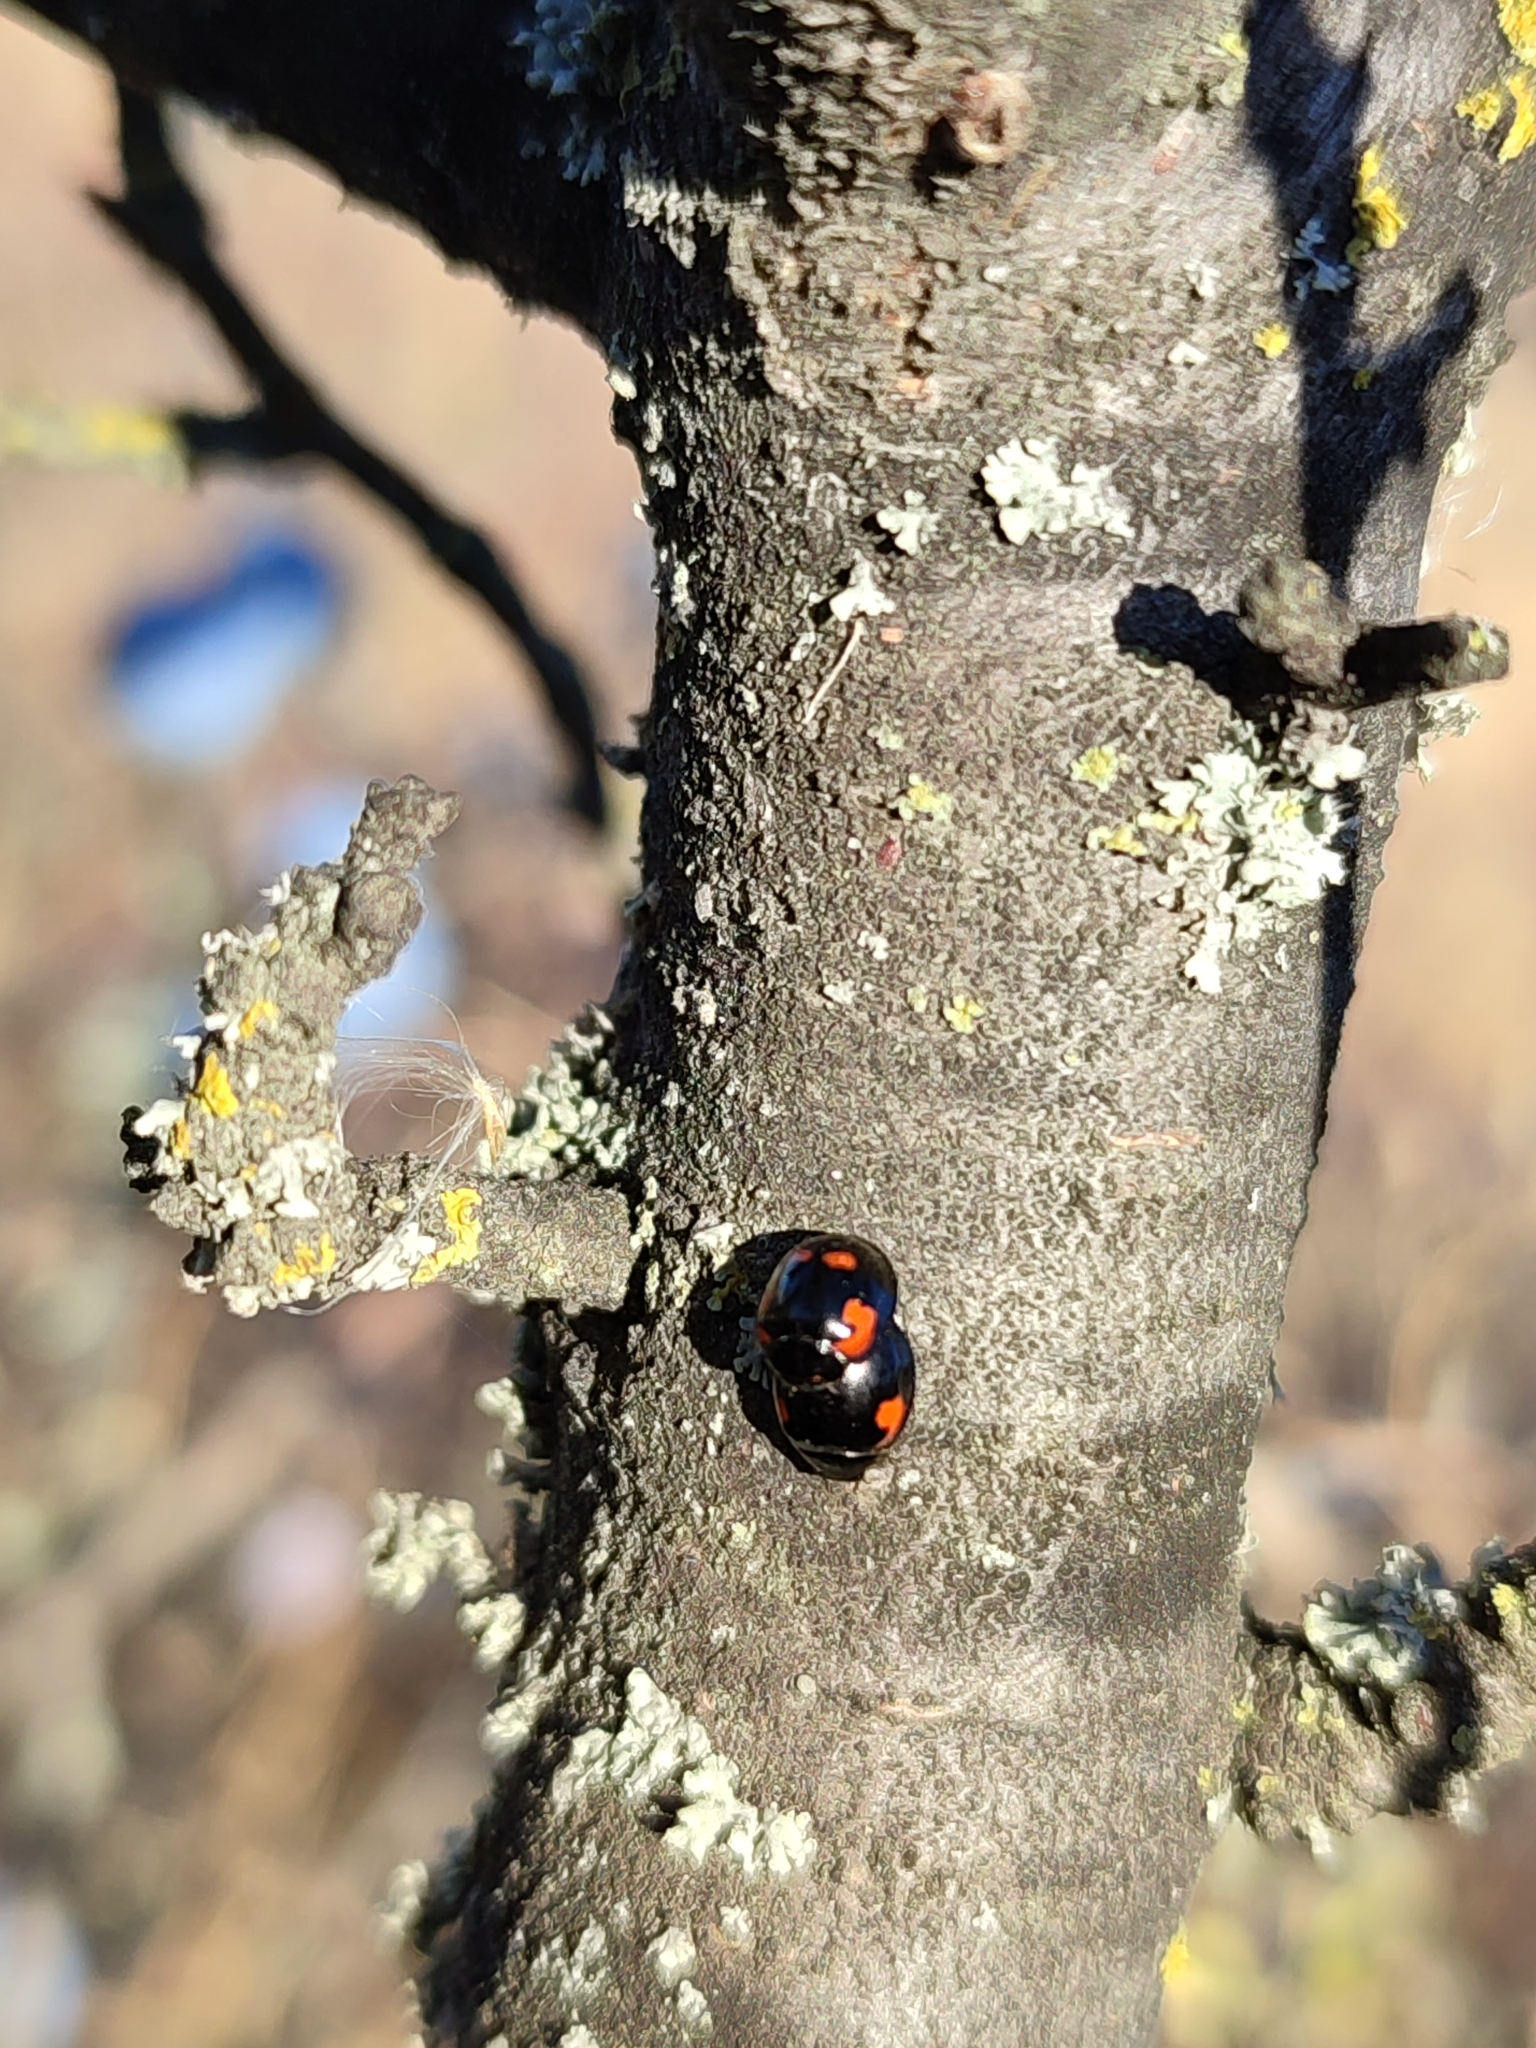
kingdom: Animalia
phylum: Arthropoda
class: Insecta
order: Coleoptera
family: Coccinellidae
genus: Brumus
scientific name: Brumus quadripustulatus
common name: Ladybird beetle
